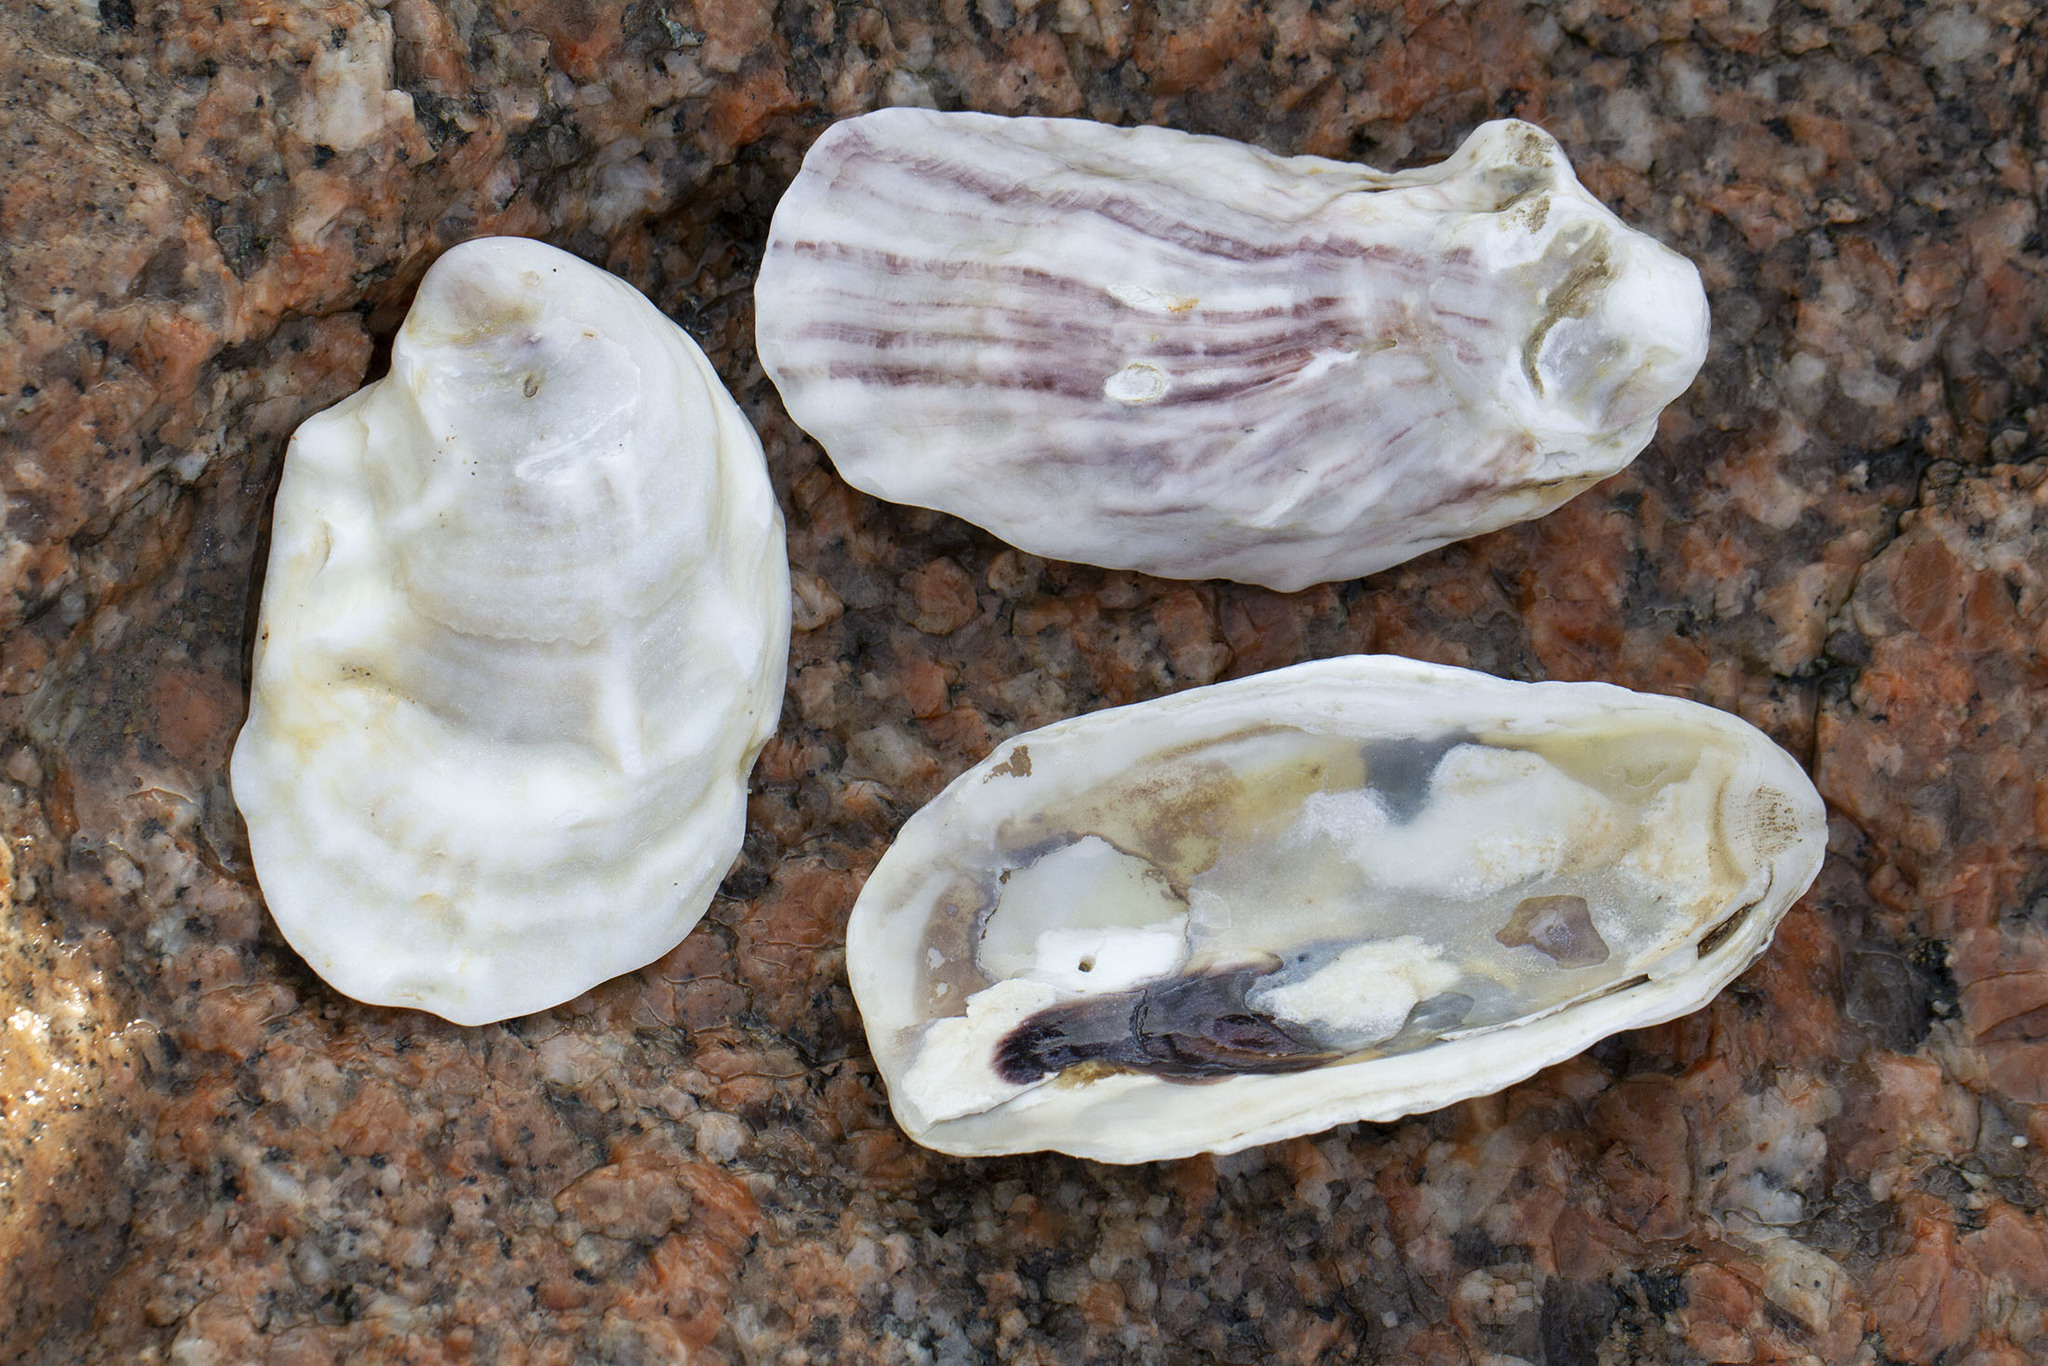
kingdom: Animalia
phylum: Mollusca
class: Bivalvia
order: Ostreida
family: Ostreidae
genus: Crassostrea
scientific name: Crassostrea virginica
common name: American oyster
